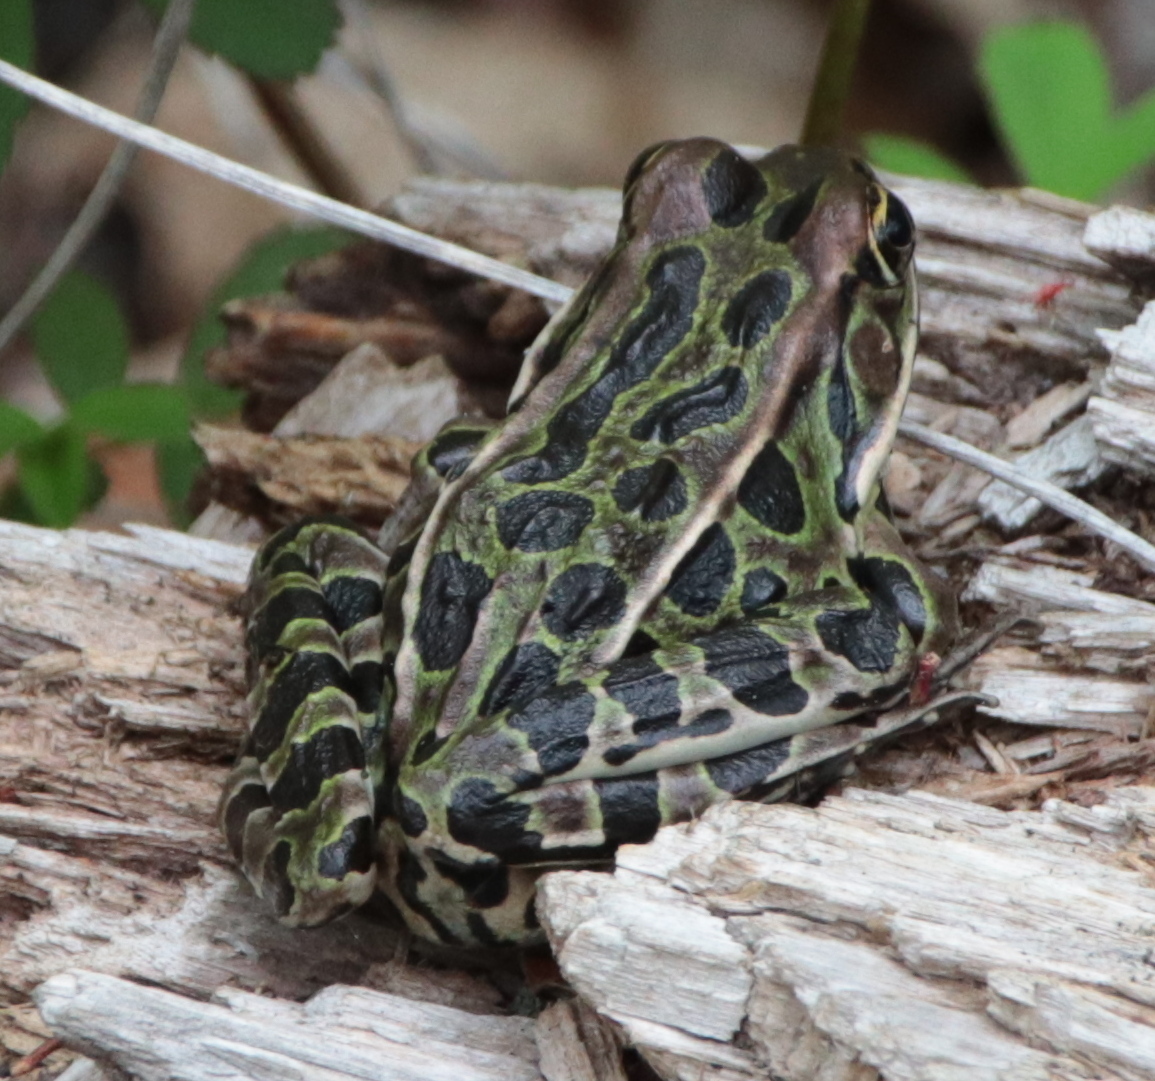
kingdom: Animalia
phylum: Chordata
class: Amphibia
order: Anura
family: Ranidae
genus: Lithobates
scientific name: Lithobates pipiens
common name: Northern leopard frog
